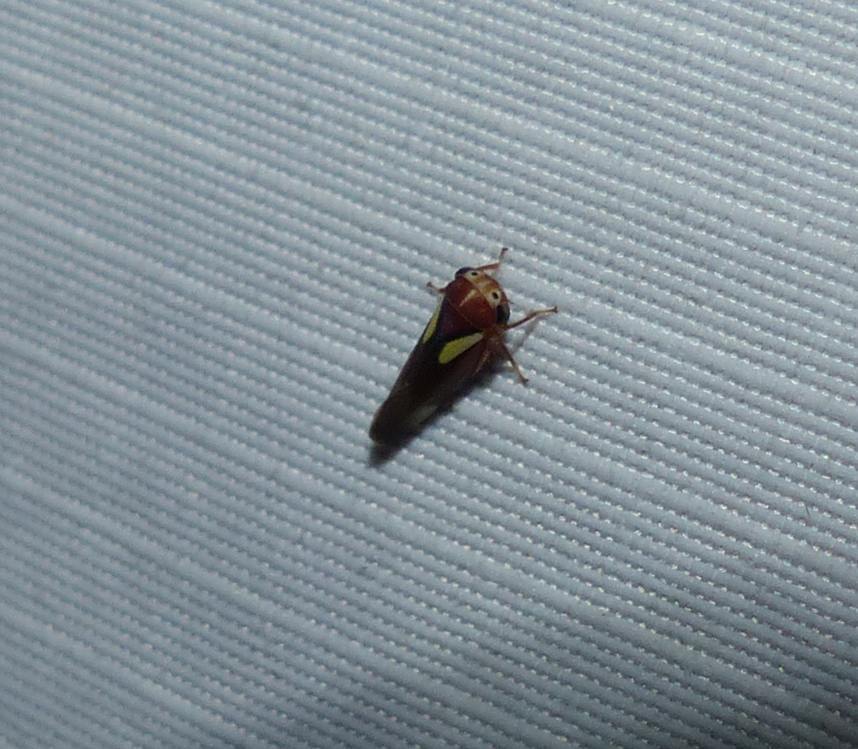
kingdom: Animalia
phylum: Arthropoda
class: Insecta
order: Hemiptera
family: Cicadellidae
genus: Balcanocerus
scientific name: Balcanocerus provancheri
